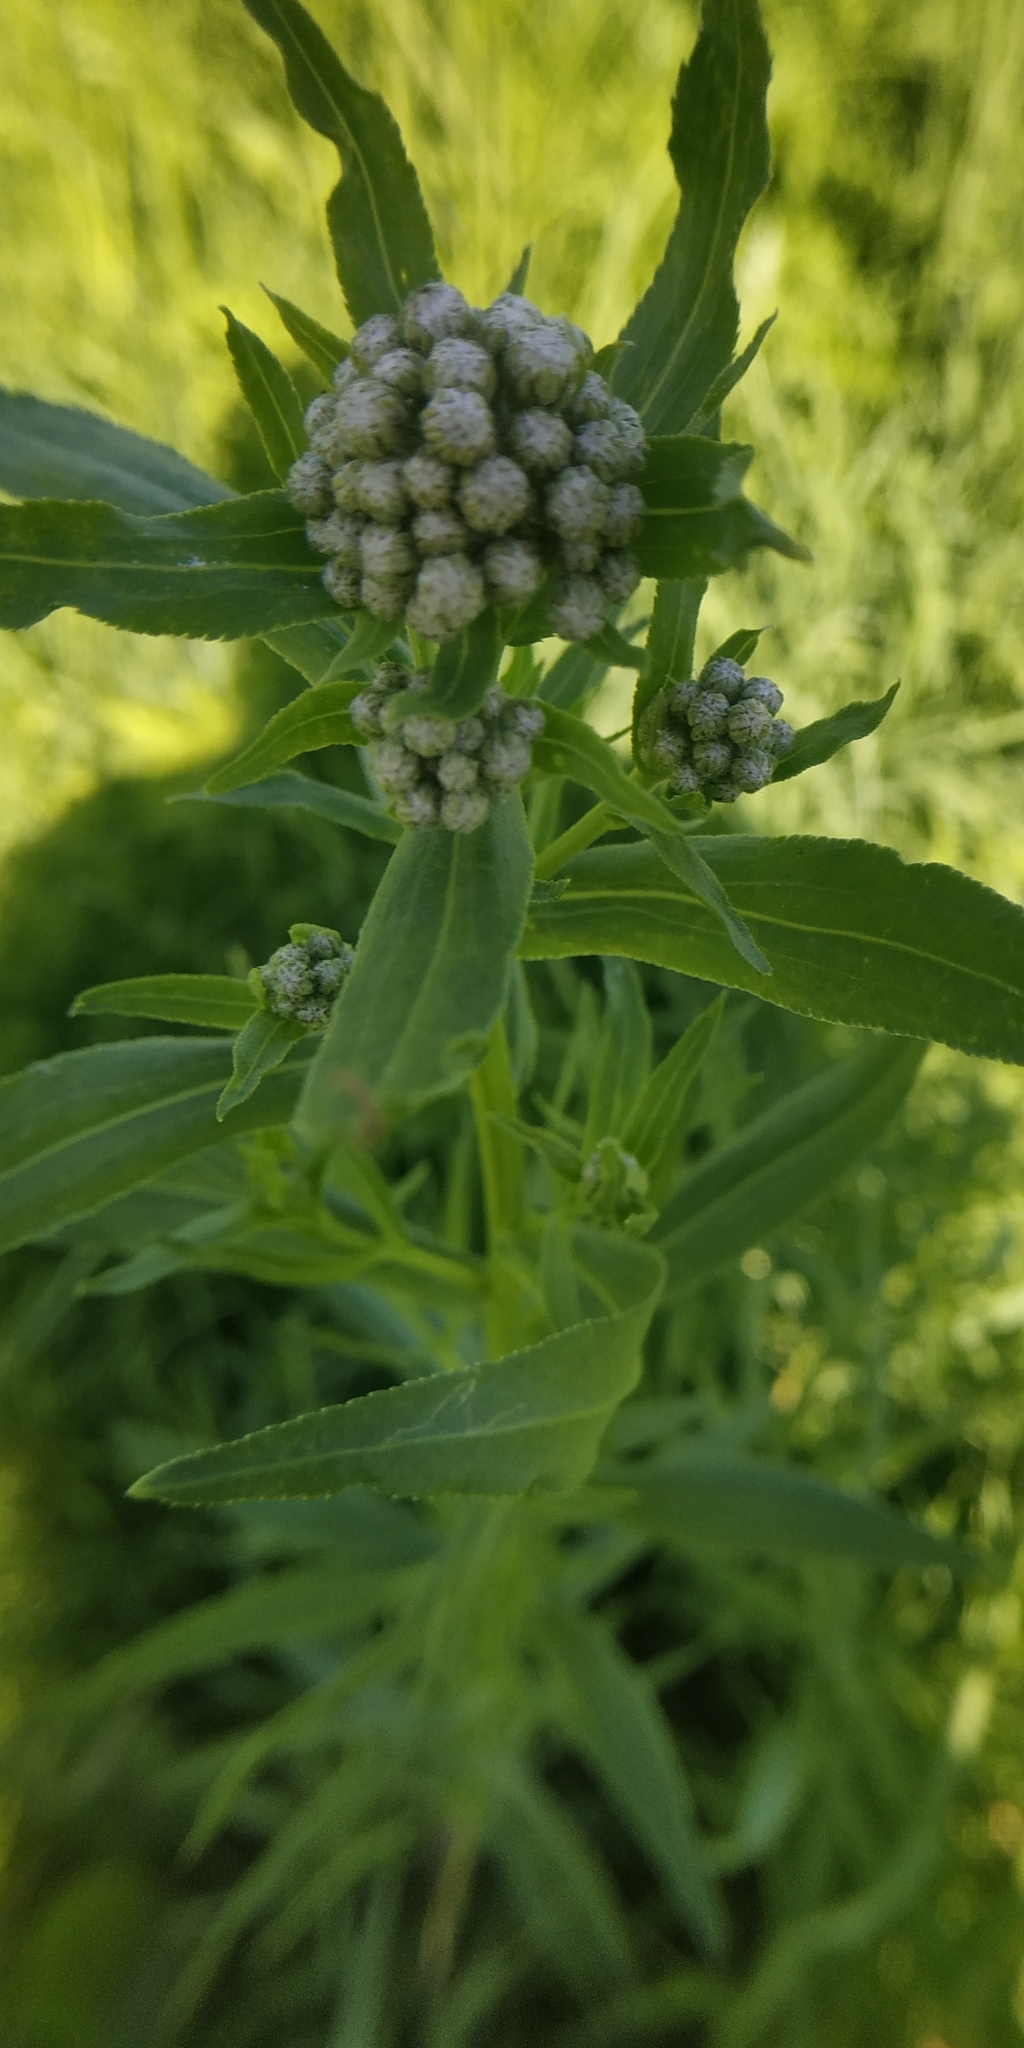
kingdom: Plantae
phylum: Tracheophyta
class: Magnoliopsida
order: Asterales
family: Asteraceae
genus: Achillea
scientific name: Achillea salicifolia
